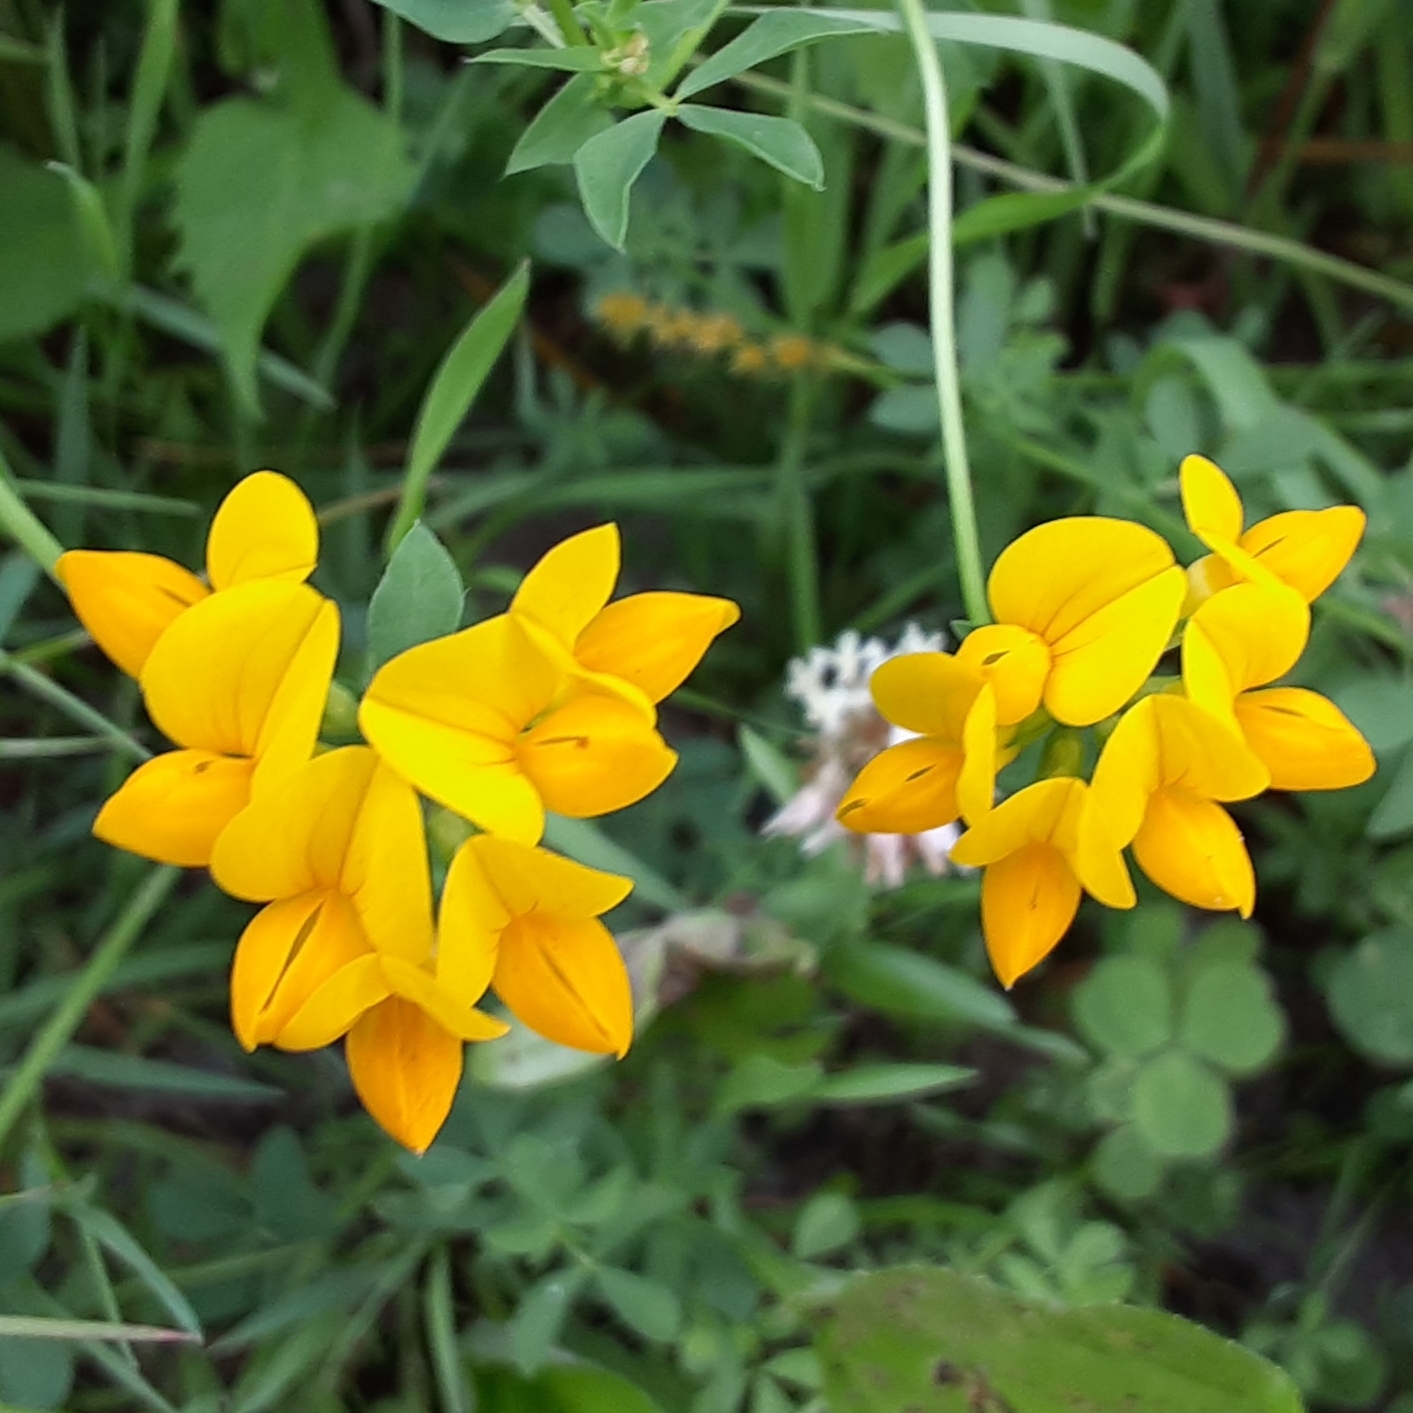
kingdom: Plantae
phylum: Tracheophyta
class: Magnoliopsida
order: Fabales
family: Fabaceae
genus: Lotus
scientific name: Lotus corniculatus
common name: Common bird's-foot-trefoil
